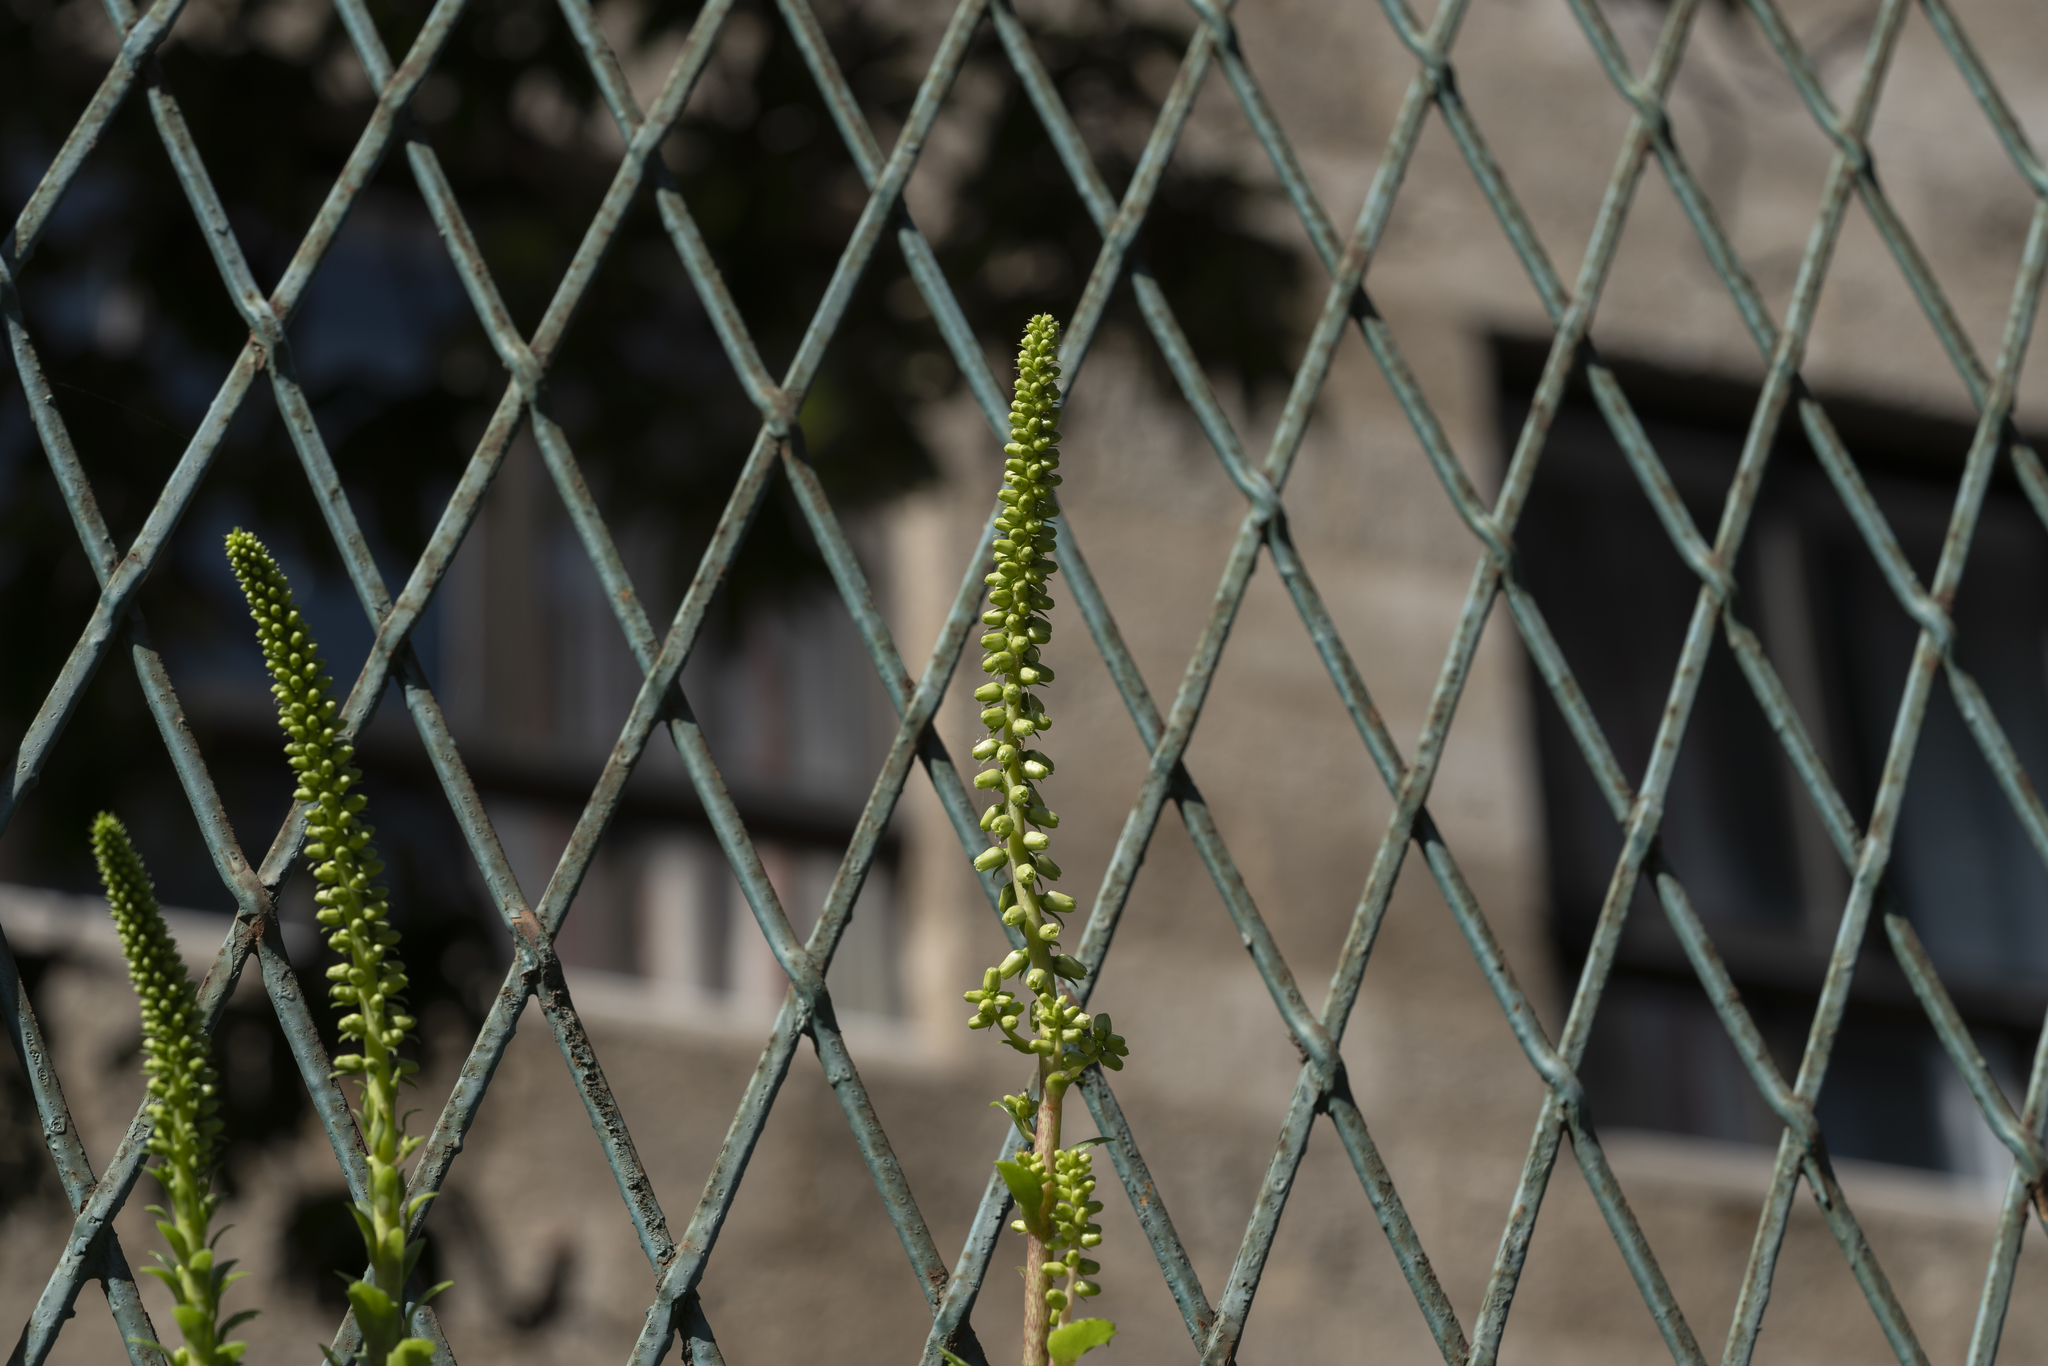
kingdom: Plantae
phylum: Tracheophyta
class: Magnoliopsida
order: Saxifragales
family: Crassulaceae
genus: Umbilicus
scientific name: Umbilicus horizontalis
